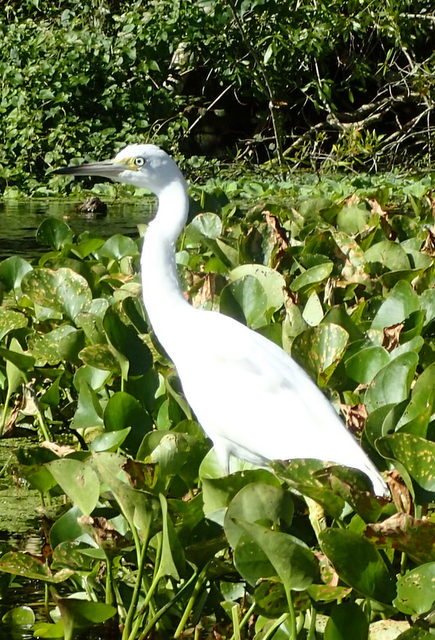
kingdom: Animalia
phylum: Chordata
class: Aves
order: Pelecaniformes
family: Ardeidae
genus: Egretta
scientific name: Egretta caerulea
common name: Little blue heron
